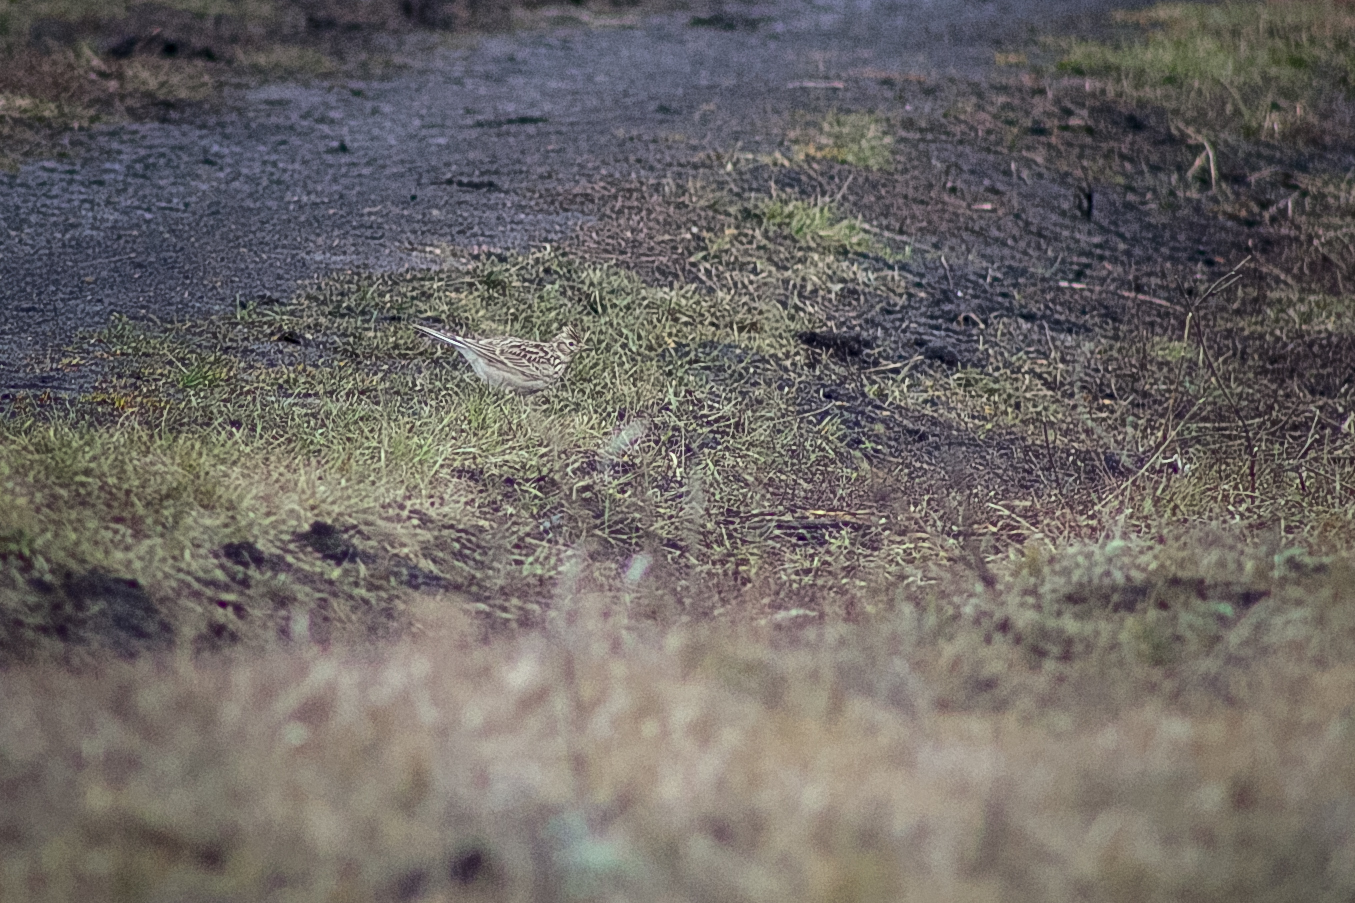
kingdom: Animalia
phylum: Chordata
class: Aves
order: Passeriformes
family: Alaudidae
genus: Alauda
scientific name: Alauda arvensis
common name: Eurasian skylark
